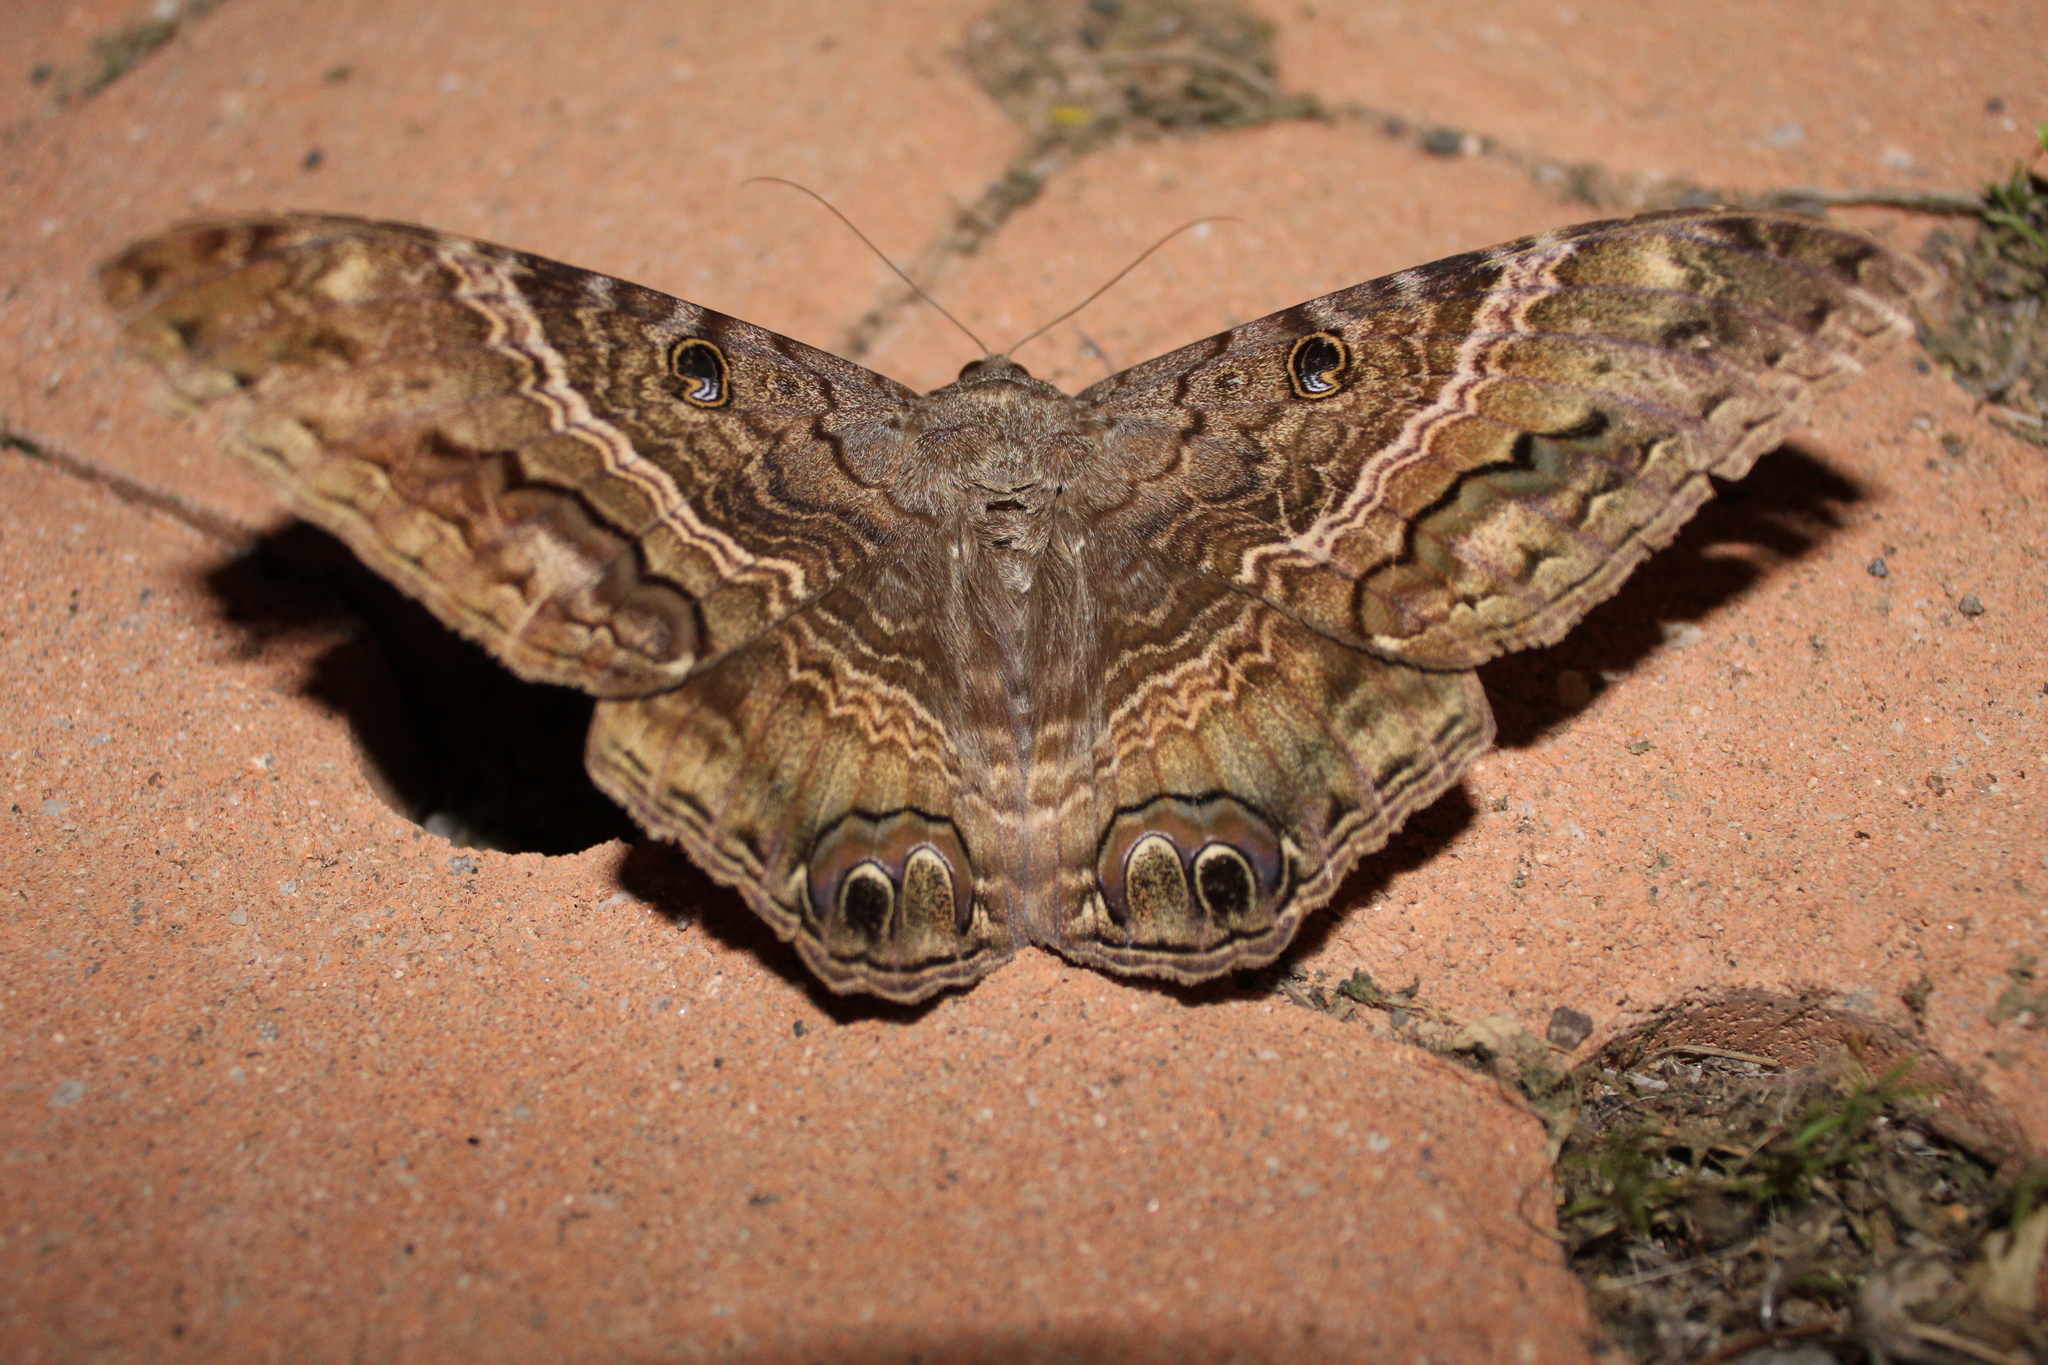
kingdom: Animalia
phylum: Arthropoda
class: Insecta
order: Lepidoptera
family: Erebidae
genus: Ascalapha
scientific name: Ascalapha odorata
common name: Black witch
